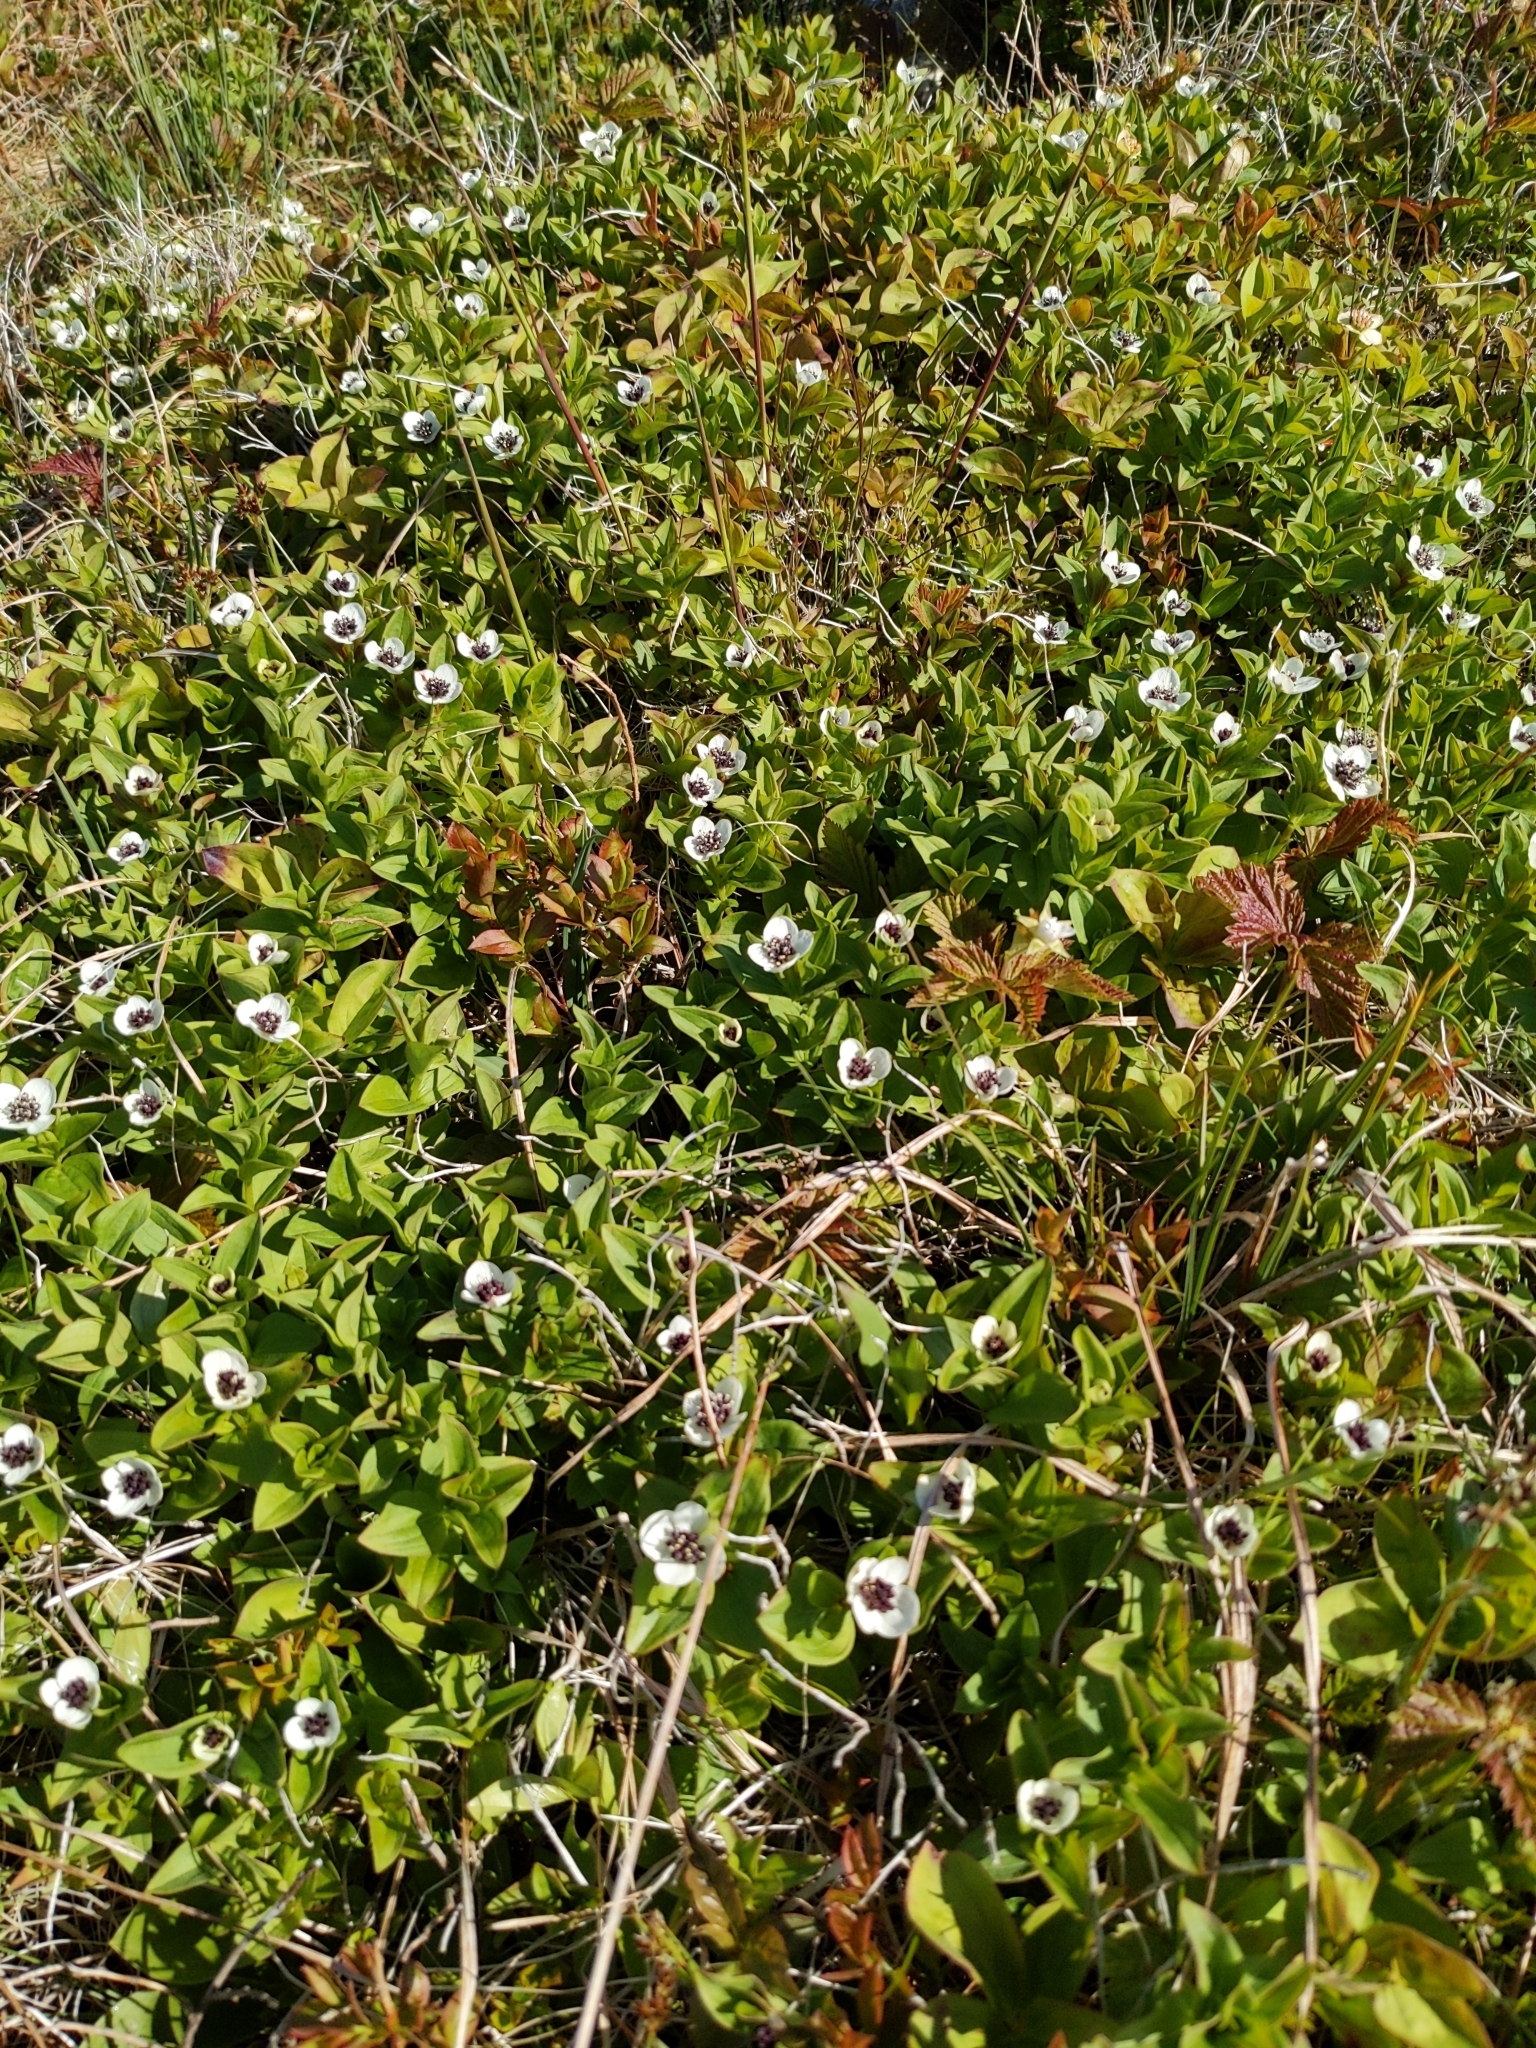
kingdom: Plantae
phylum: Tracheophyta
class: Magnoliopsida
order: Cornales
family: Cornaceae
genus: Cornus
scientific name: Cornus suecica
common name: Dwarf cornel
